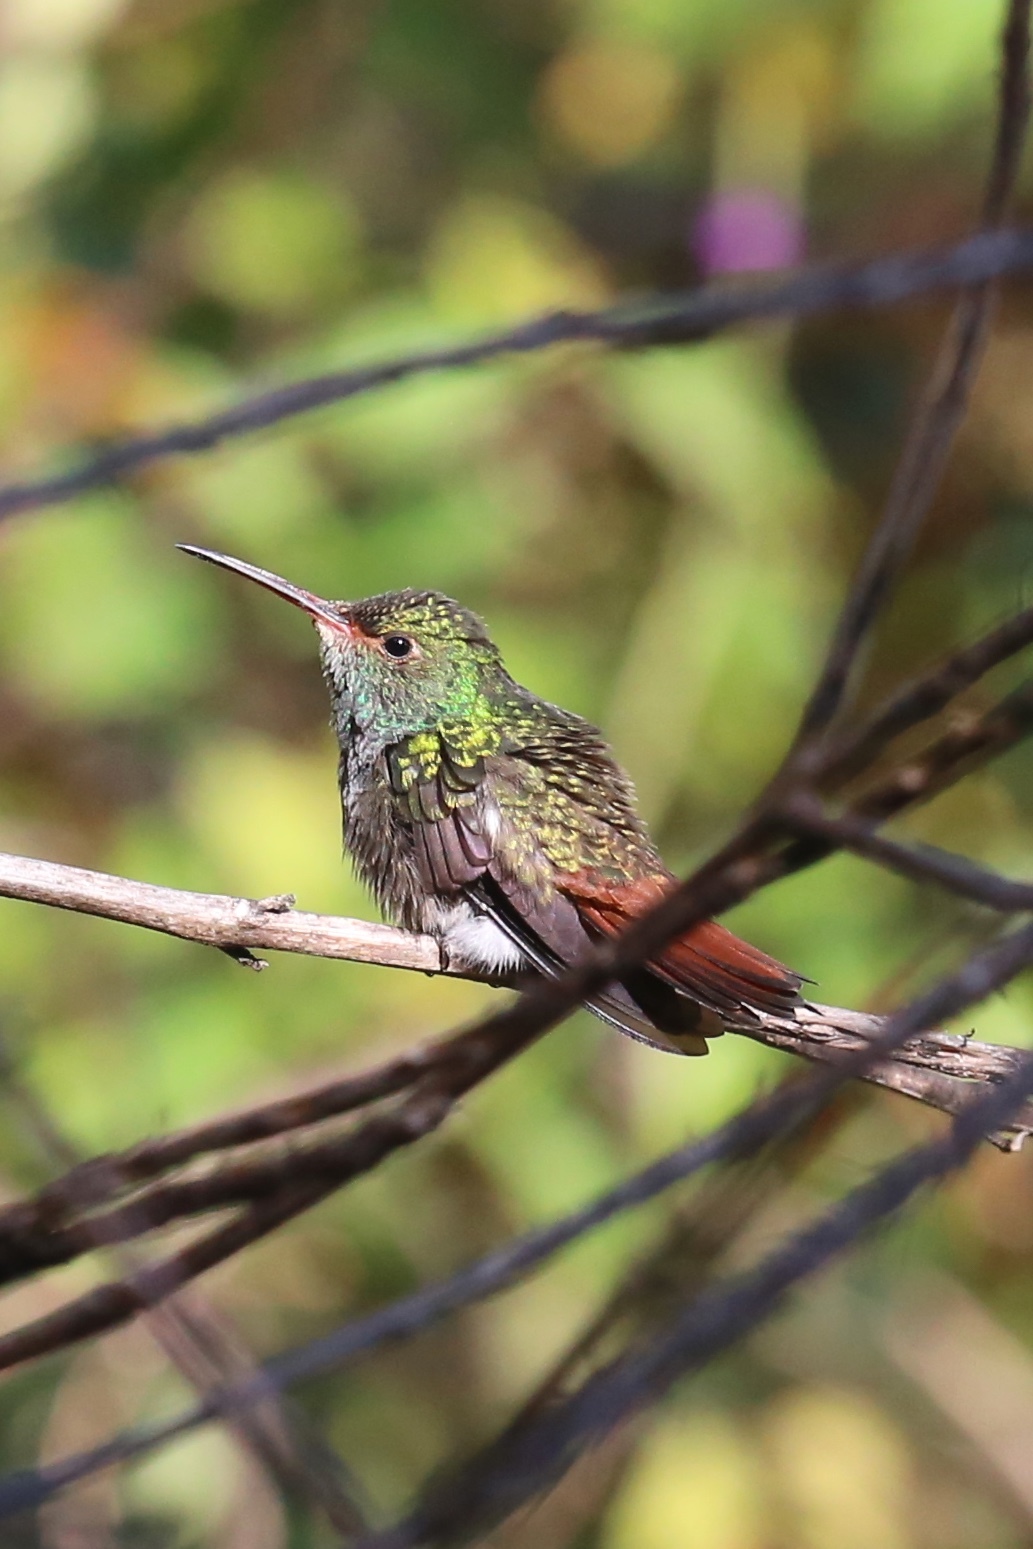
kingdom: Animalia
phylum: Chordata
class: Aves
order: Apodiformes
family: Trochilidae
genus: Amazilia
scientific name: Amazilia tzacatl
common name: Rufous-tailed hummingbird
